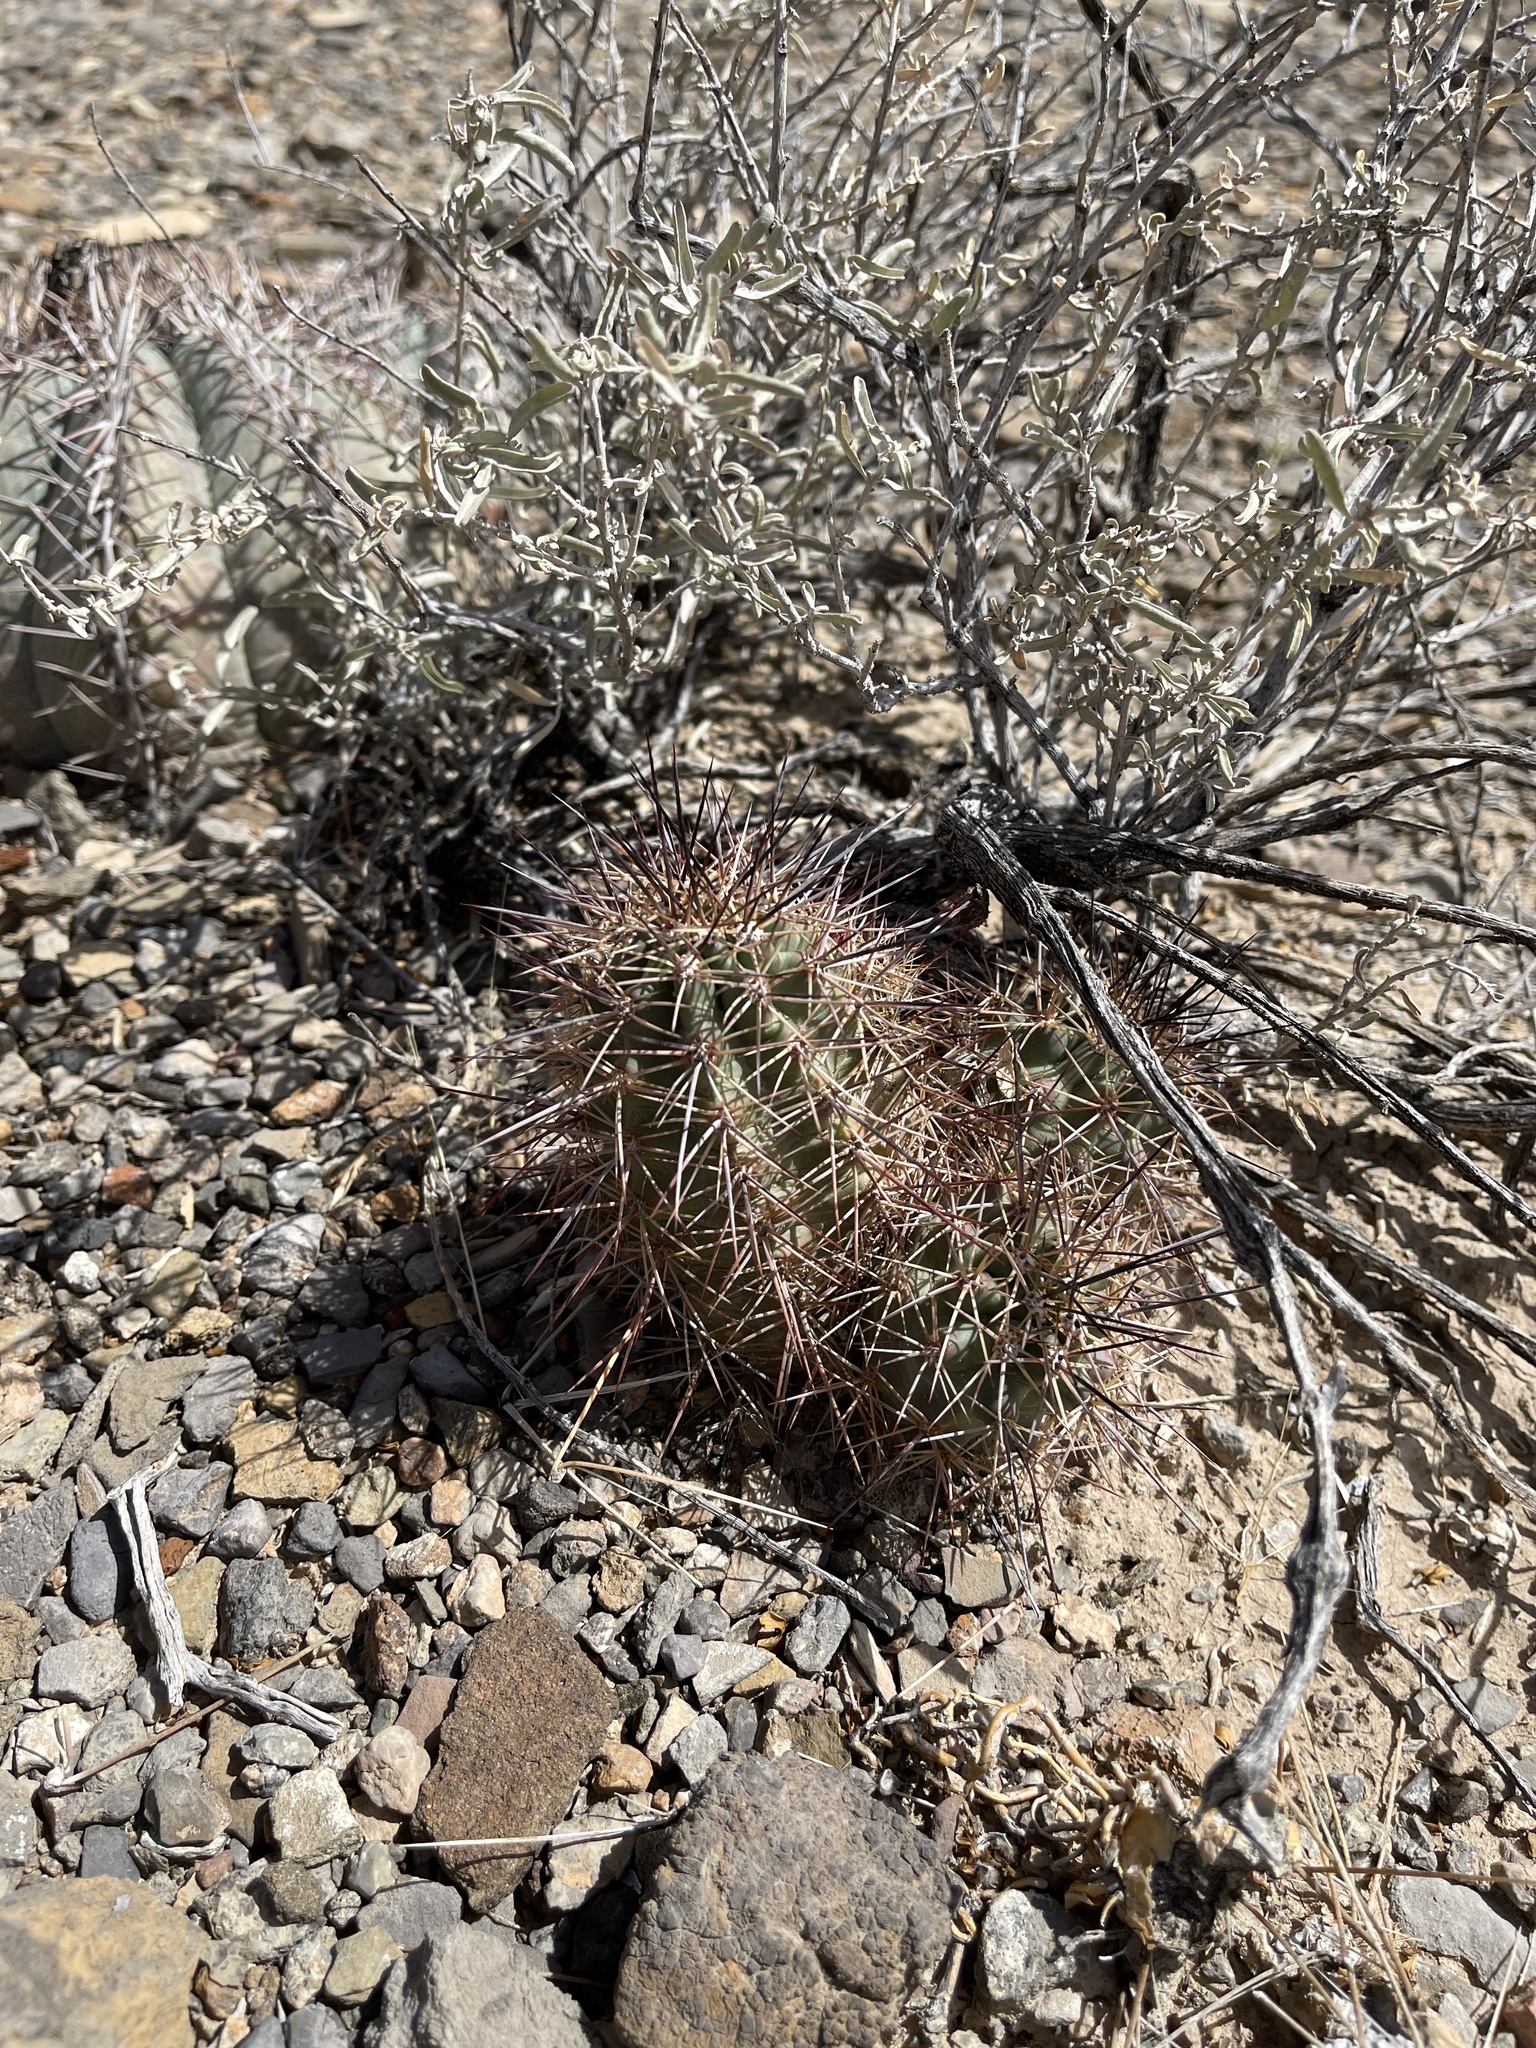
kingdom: Plantae
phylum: Tracheophyta
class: Magnoliopsida
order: Caryophyllales
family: Cactaceae
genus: Echinocereus
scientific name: Echinocereus coccineus
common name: Scarlet hedgehog cactus
